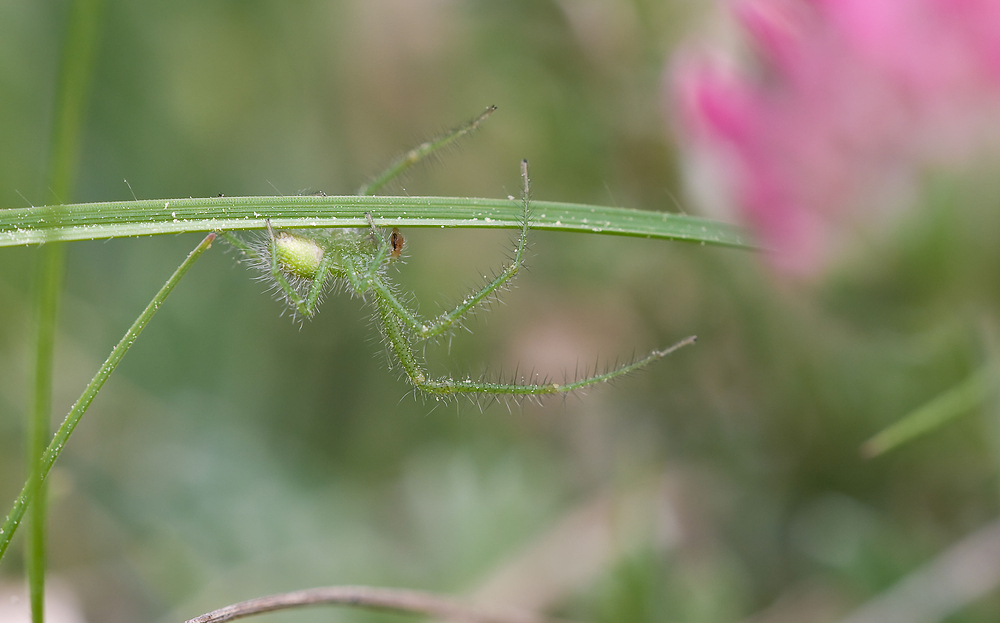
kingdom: Animalia
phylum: Arthropoda
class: Arachnida
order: Araneae
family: Thomisidae
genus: Heriaeus
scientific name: Heriaeus
